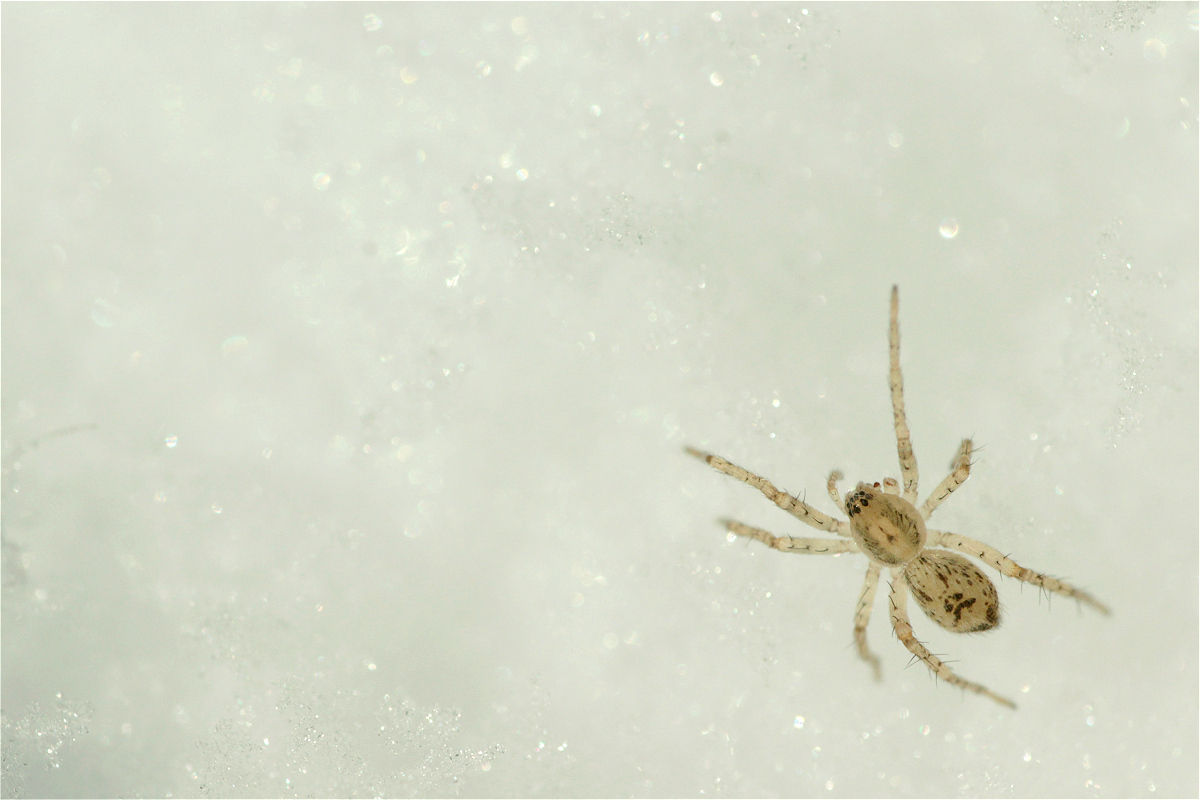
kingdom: Animalia
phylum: Arthropoda
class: Arachnida
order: Araneae
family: Anyphaenidae
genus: Anyphaena
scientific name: Anyphaena accentuata
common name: Buzzing spider
